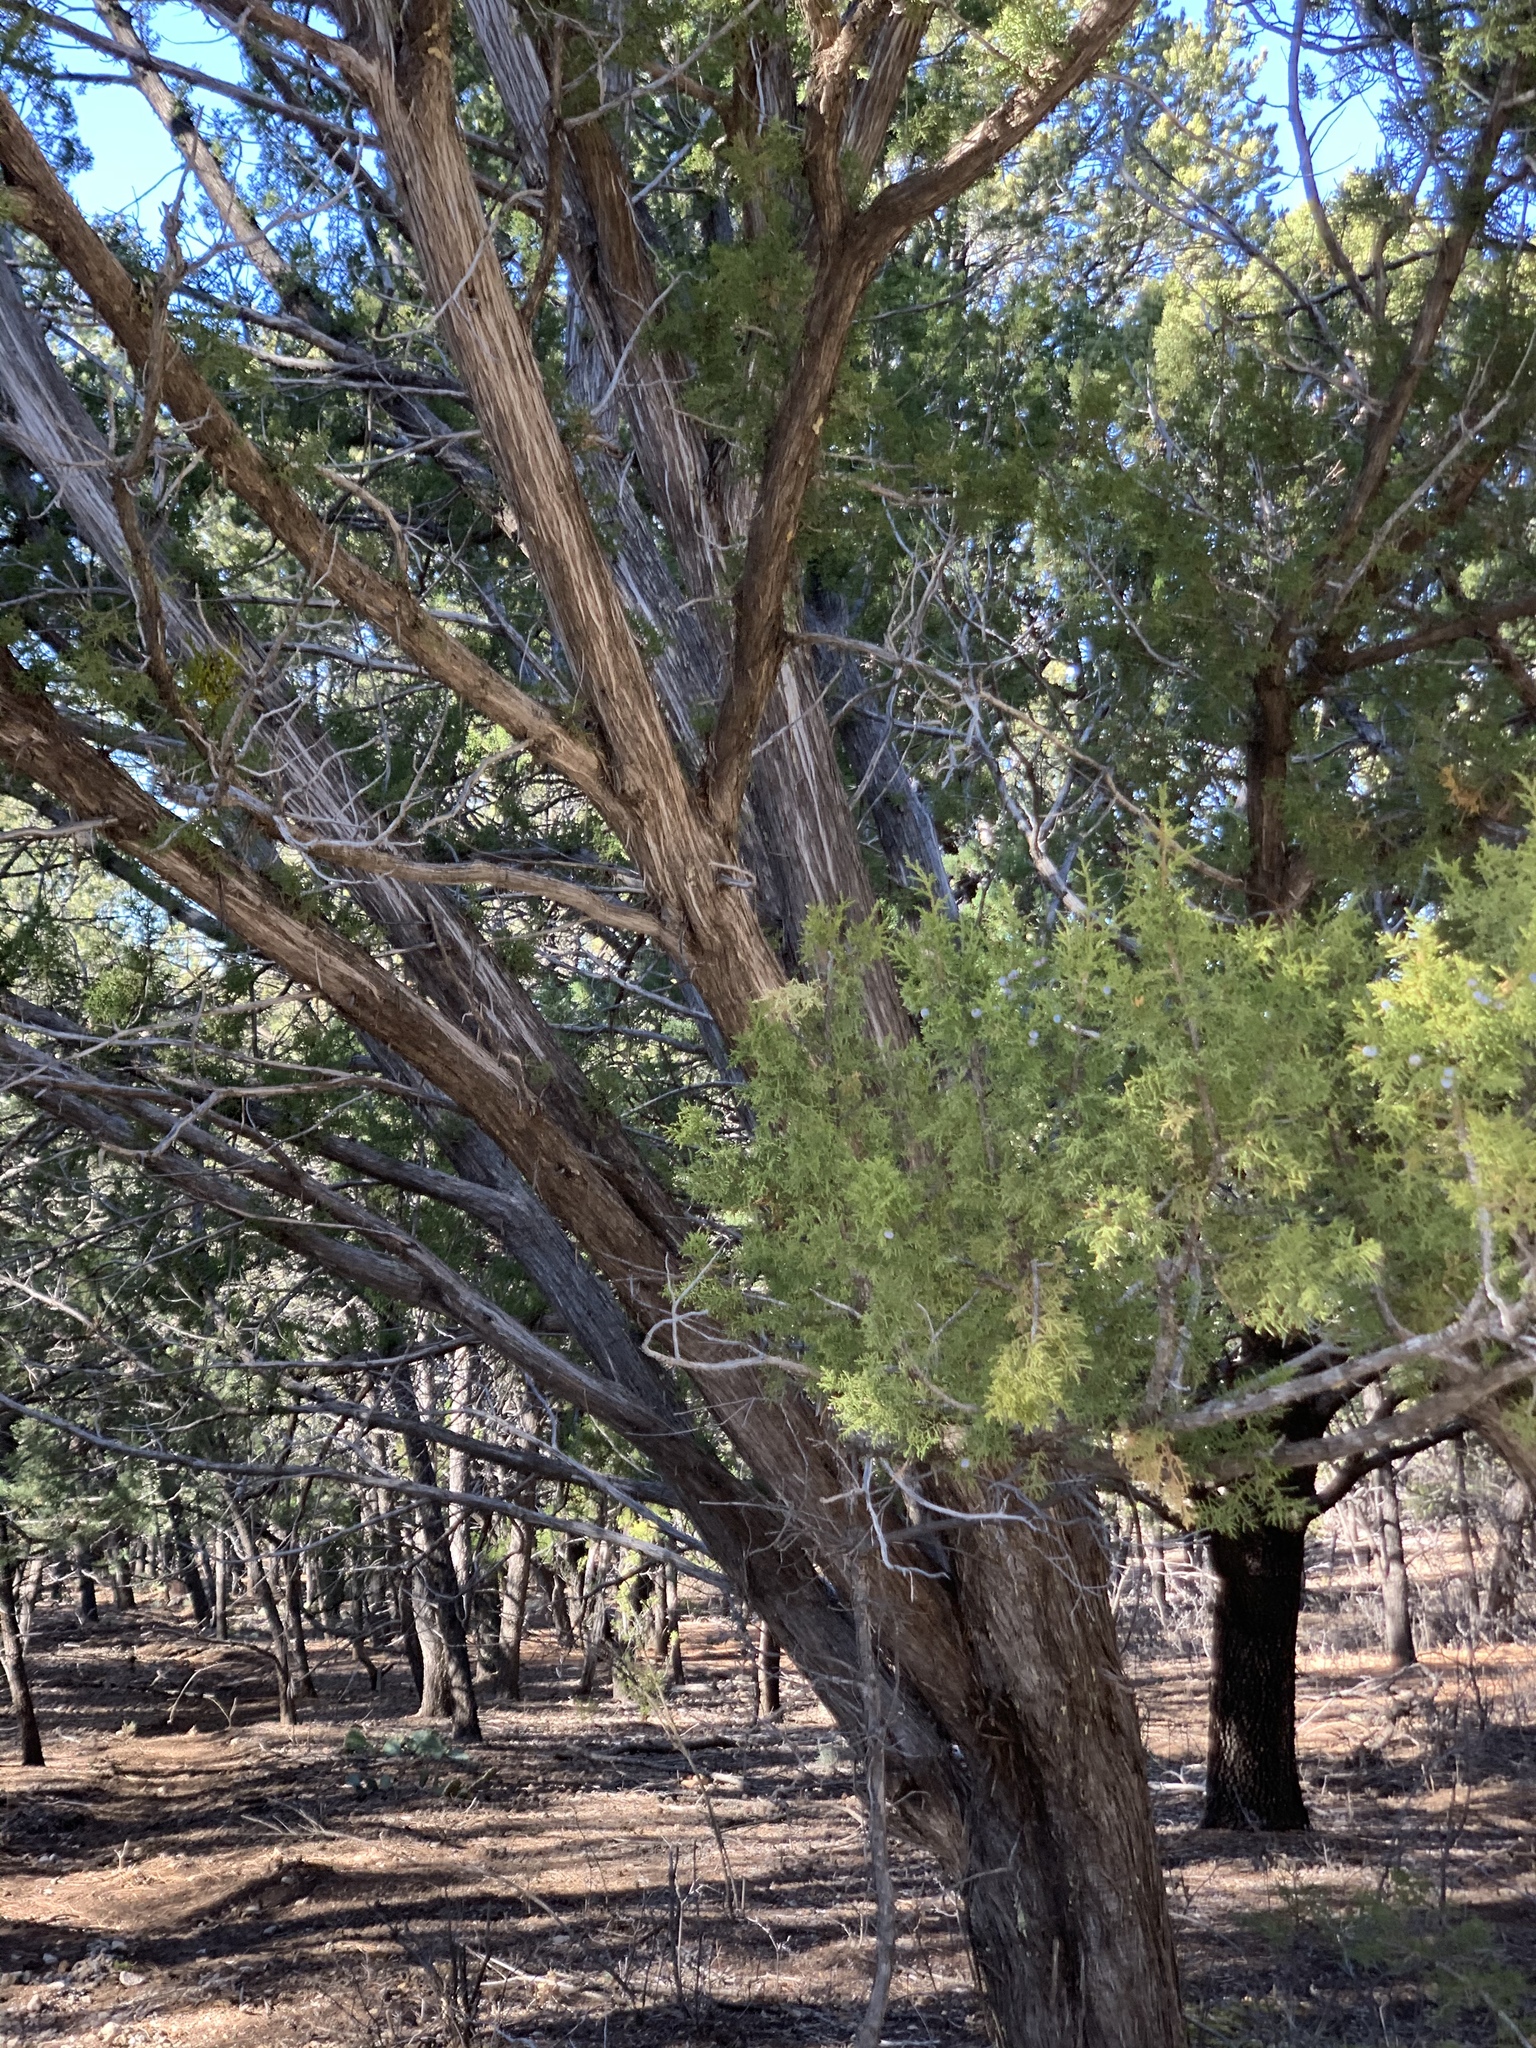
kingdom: Plantae
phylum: Tracheophyta
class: Pinopsida
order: Pinales
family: Cupressaceae
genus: Juniperus
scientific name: Juniperus monosperma
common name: One-seed juniper
